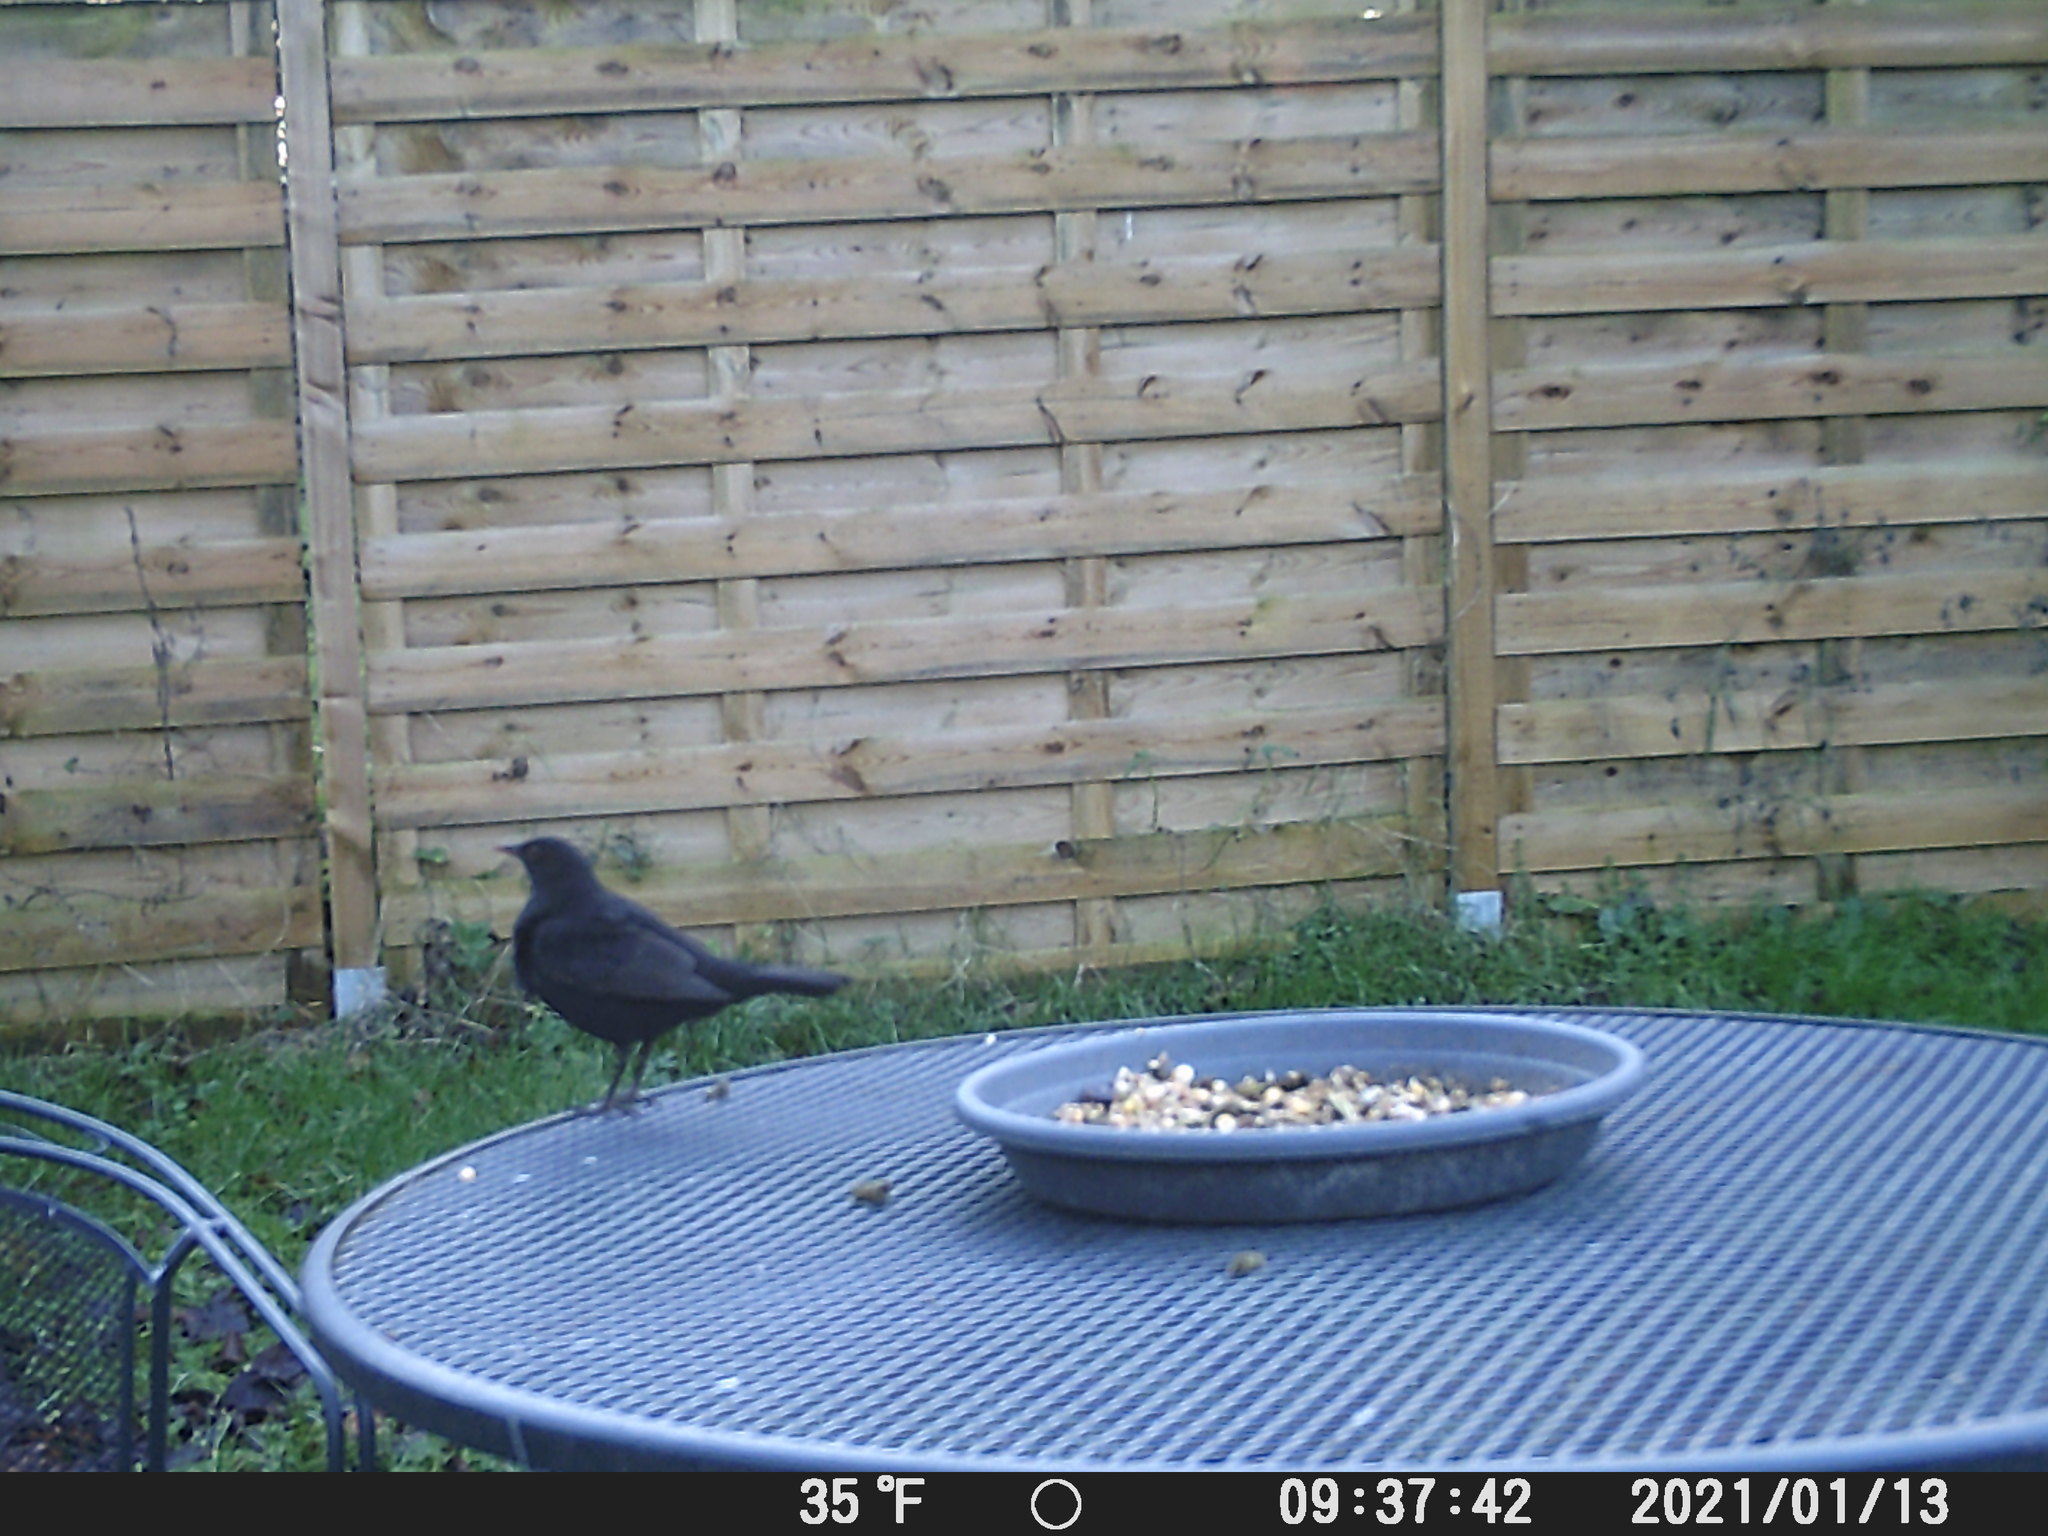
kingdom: Animalia
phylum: Chordata
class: Aves
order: Passeriformes
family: Turdidae
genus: Turdus
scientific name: Turdus merula
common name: Common blackbird
